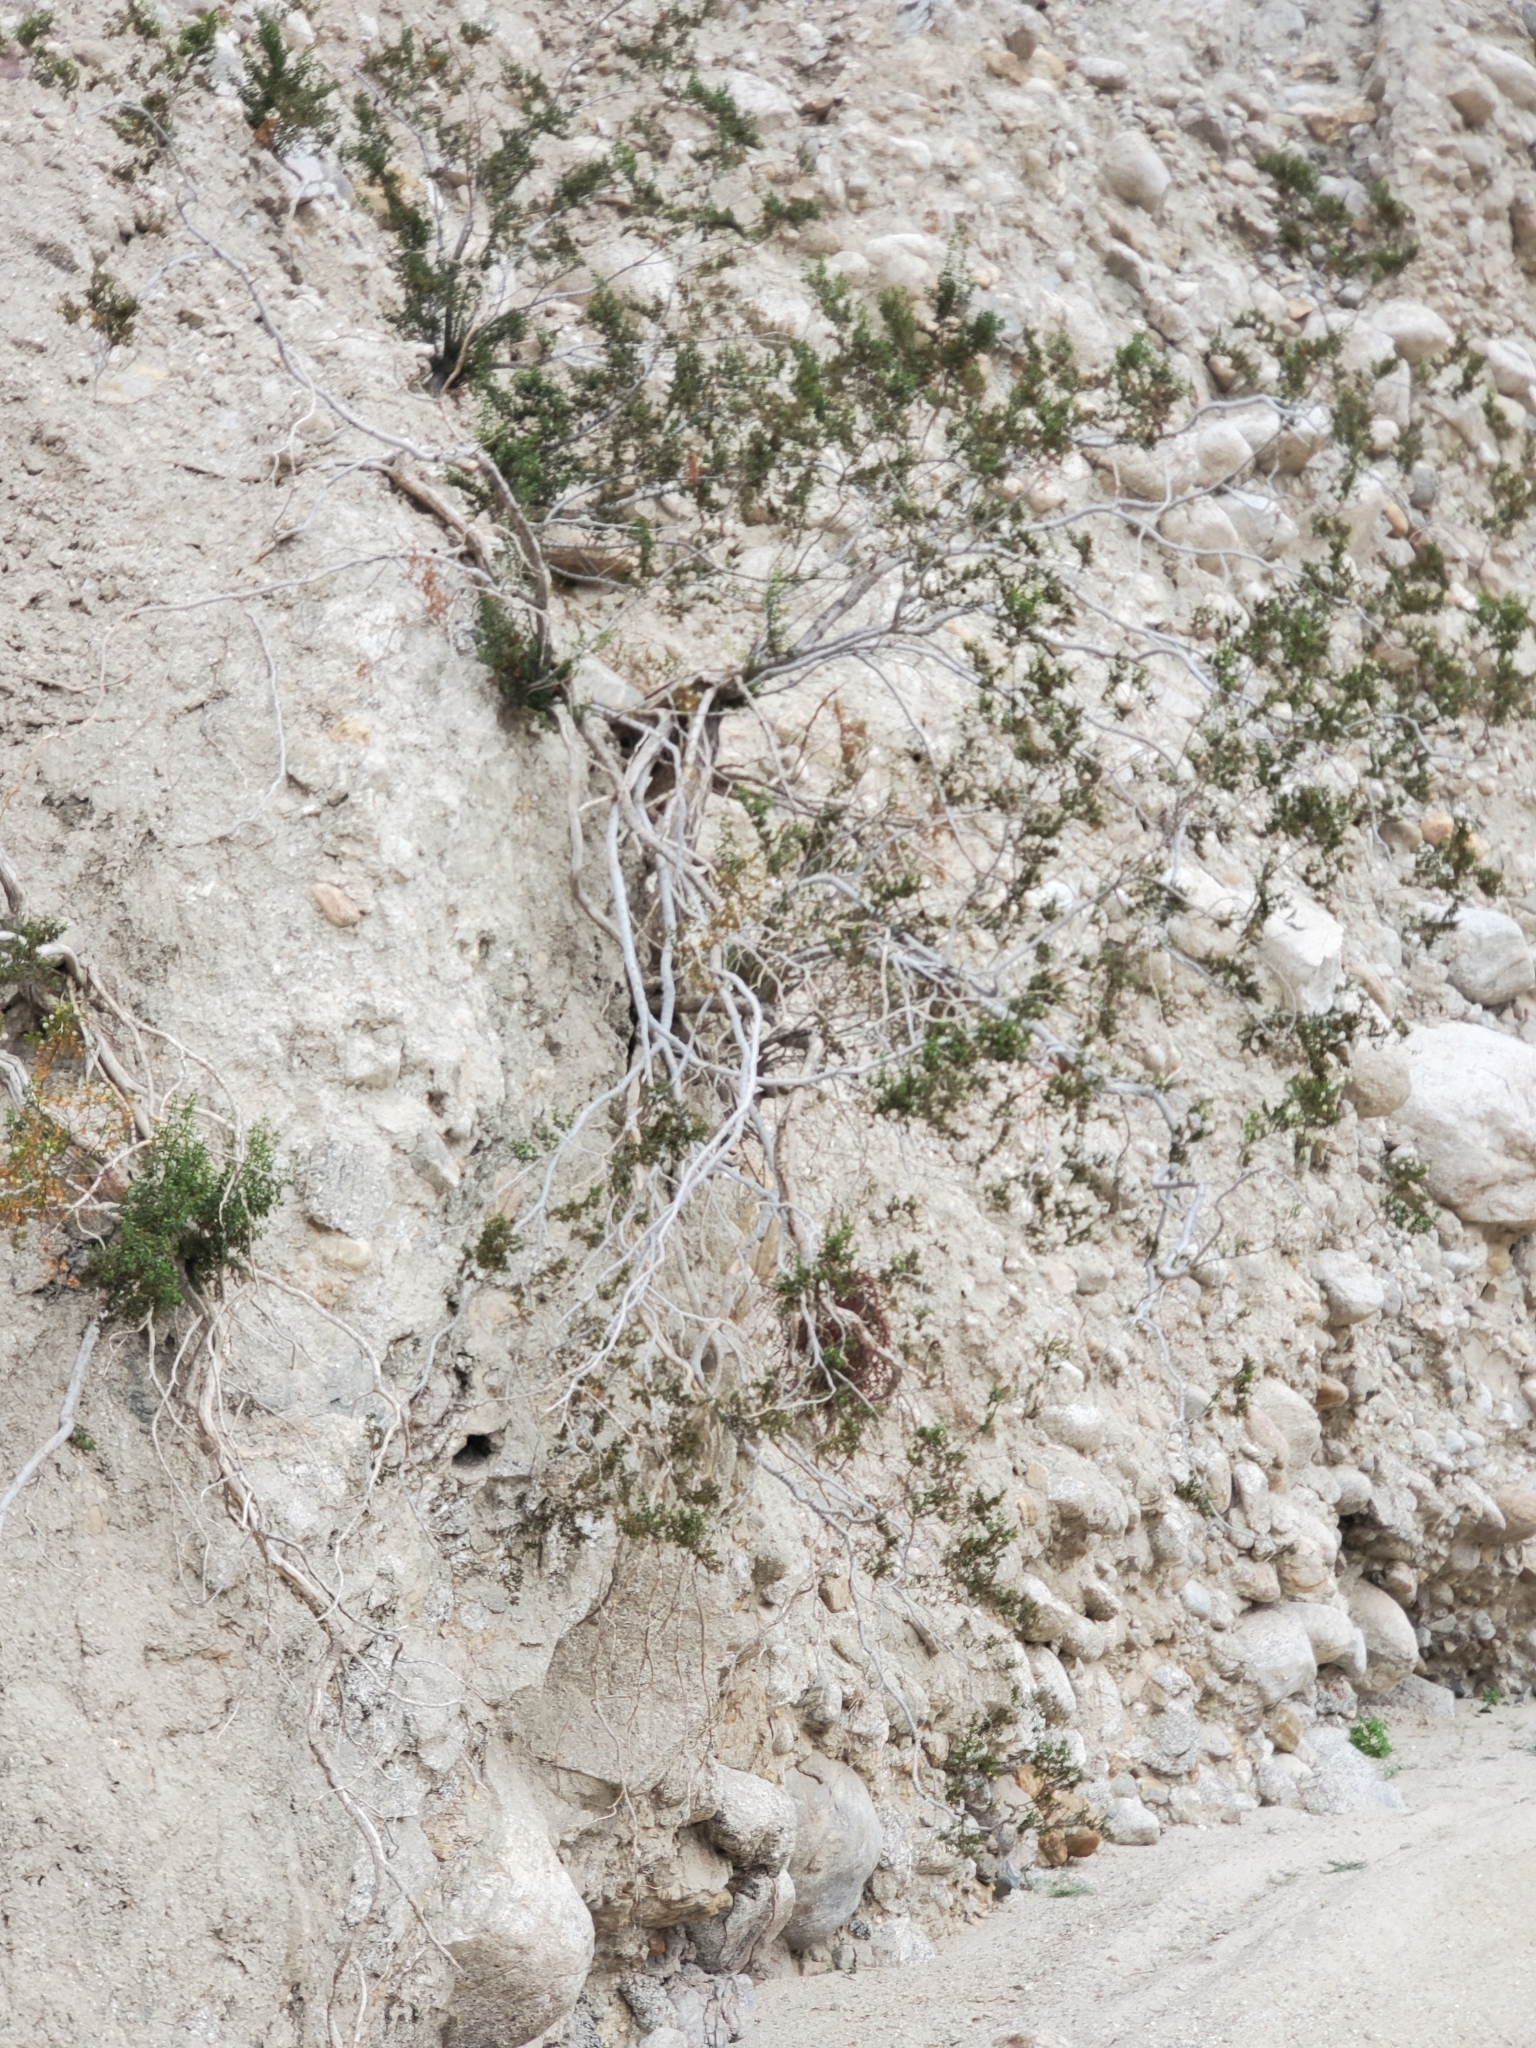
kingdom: Plantae
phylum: Tracheophyta
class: Magnoliopsida
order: Santalales
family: Viscaceae
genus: Phoradendron
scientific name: Phoradendron californicum
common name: Acacia mistletoe
